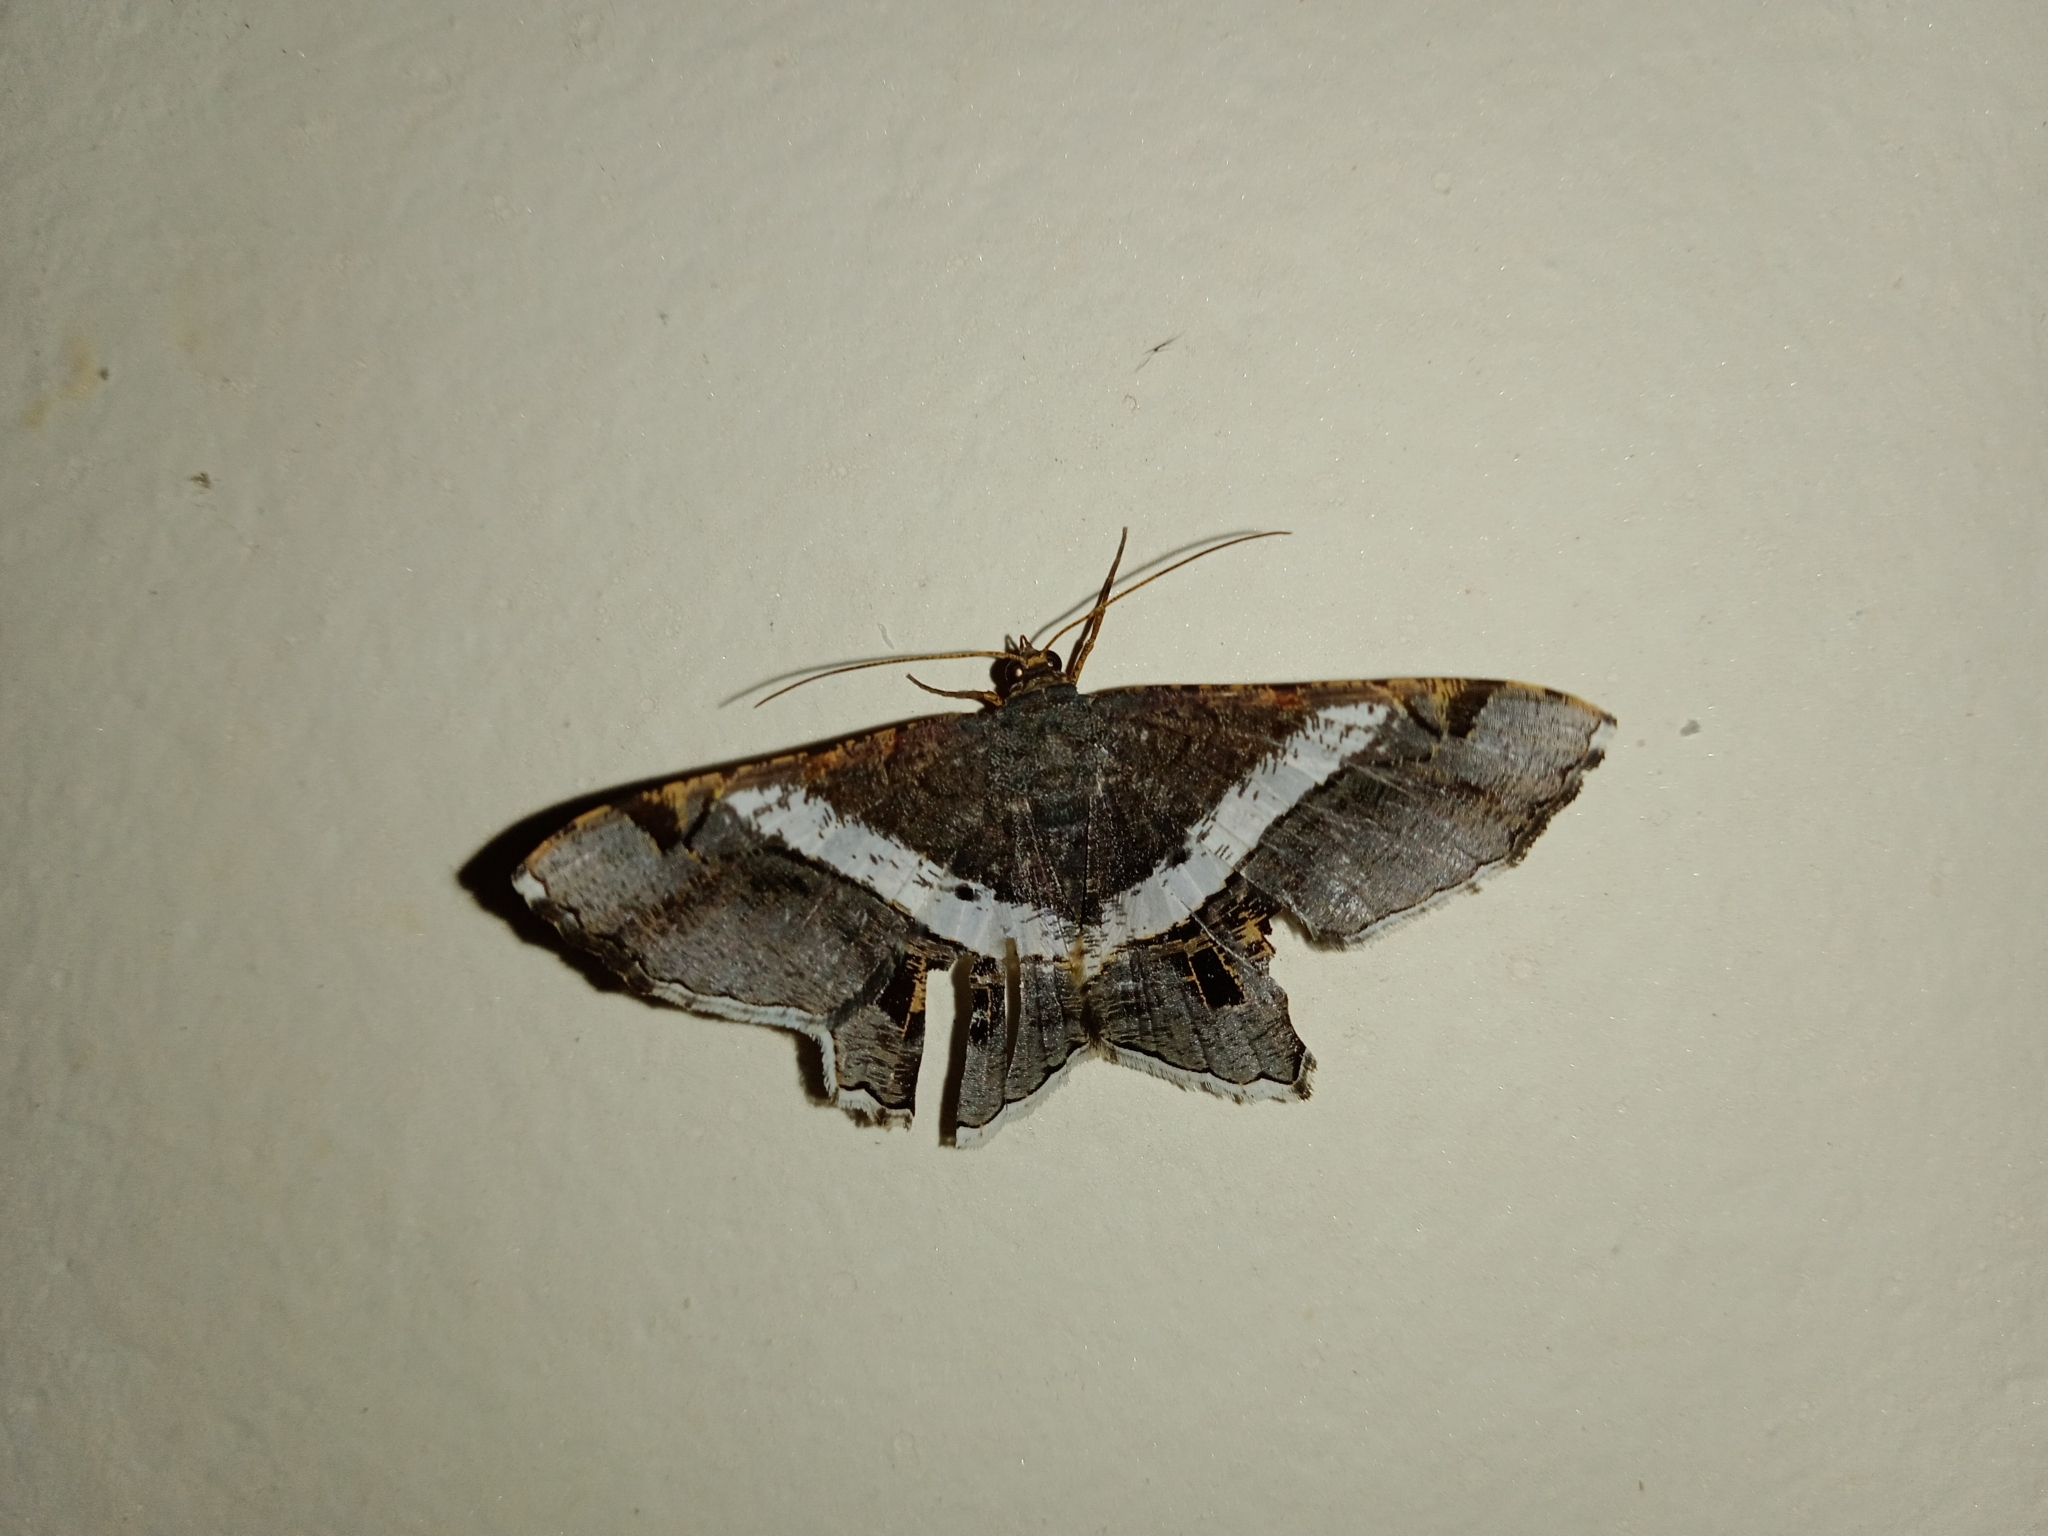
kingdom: Animalia
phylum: Arthropoda
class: Insecta
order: Lepidoptera
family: Geometridae
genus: Chiasmia
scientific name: Chiasmia nora
